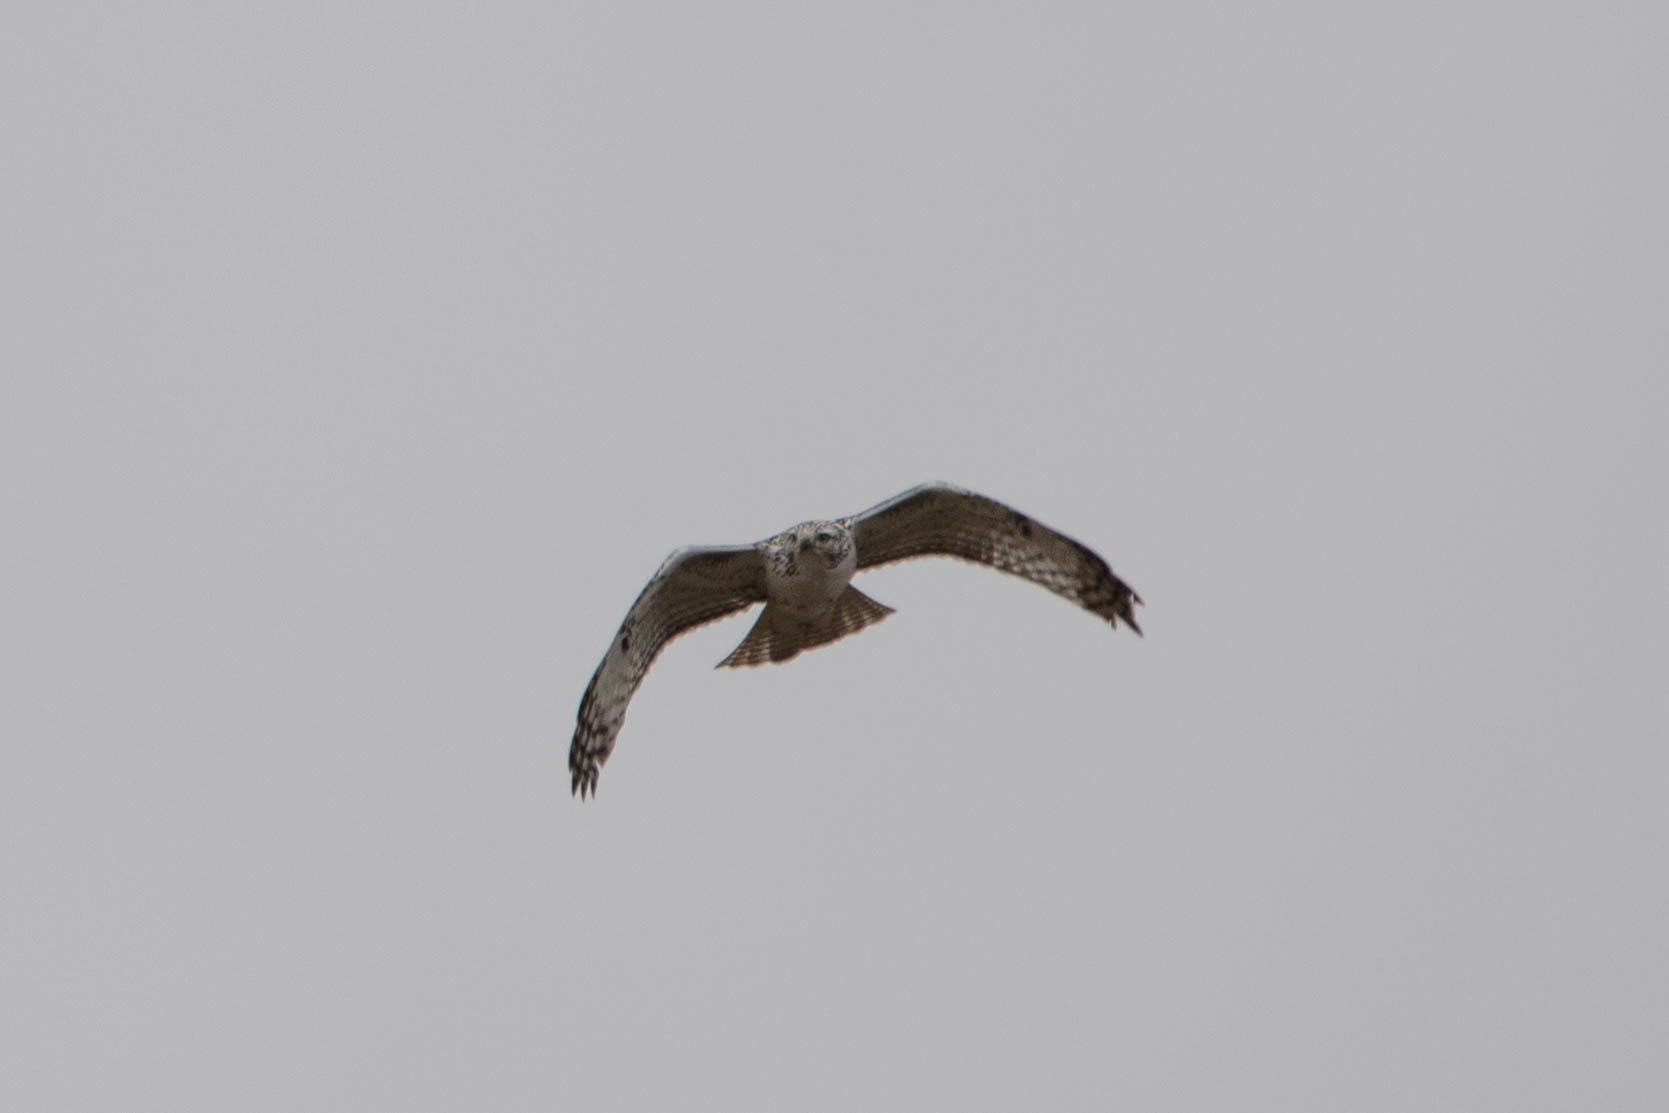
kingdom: Animalia
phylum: Chordata
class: Aves
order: Accipitriformes
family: Accipitridae
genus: Buteo
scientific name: Buteo jamaicensis
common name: Red-tailed hawk
